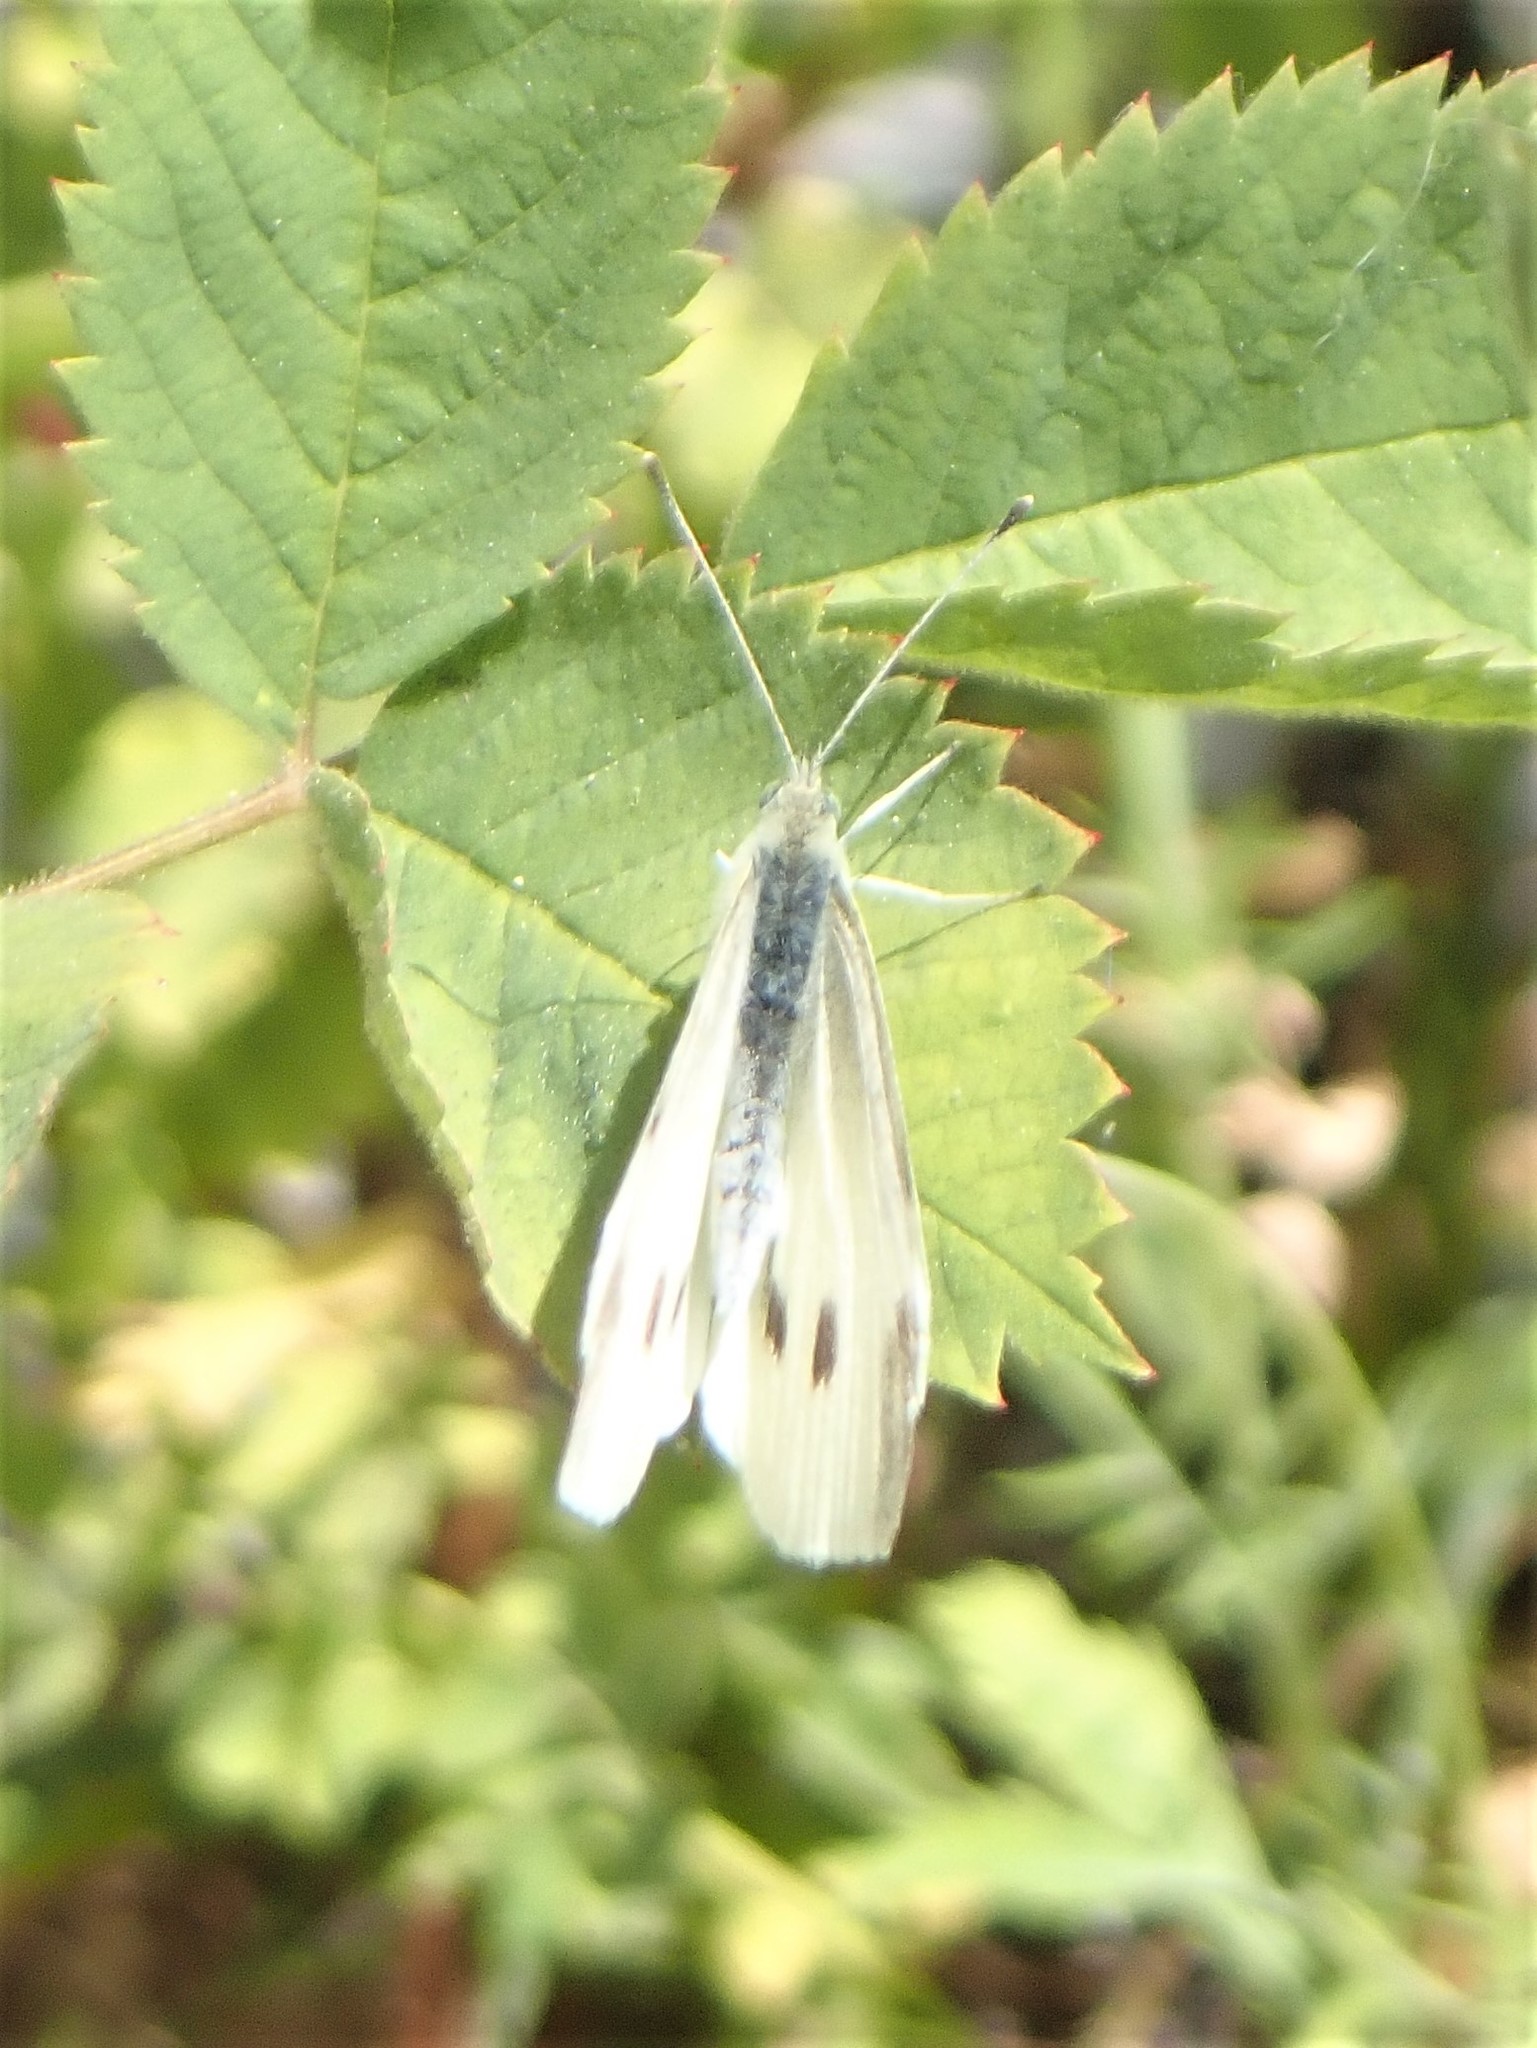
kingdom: Animalia
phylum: Arthropoda
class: Insecta
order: Lepidoptera
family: Pieridae
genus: Pieris
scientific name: Pieris rapae
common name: Small white
